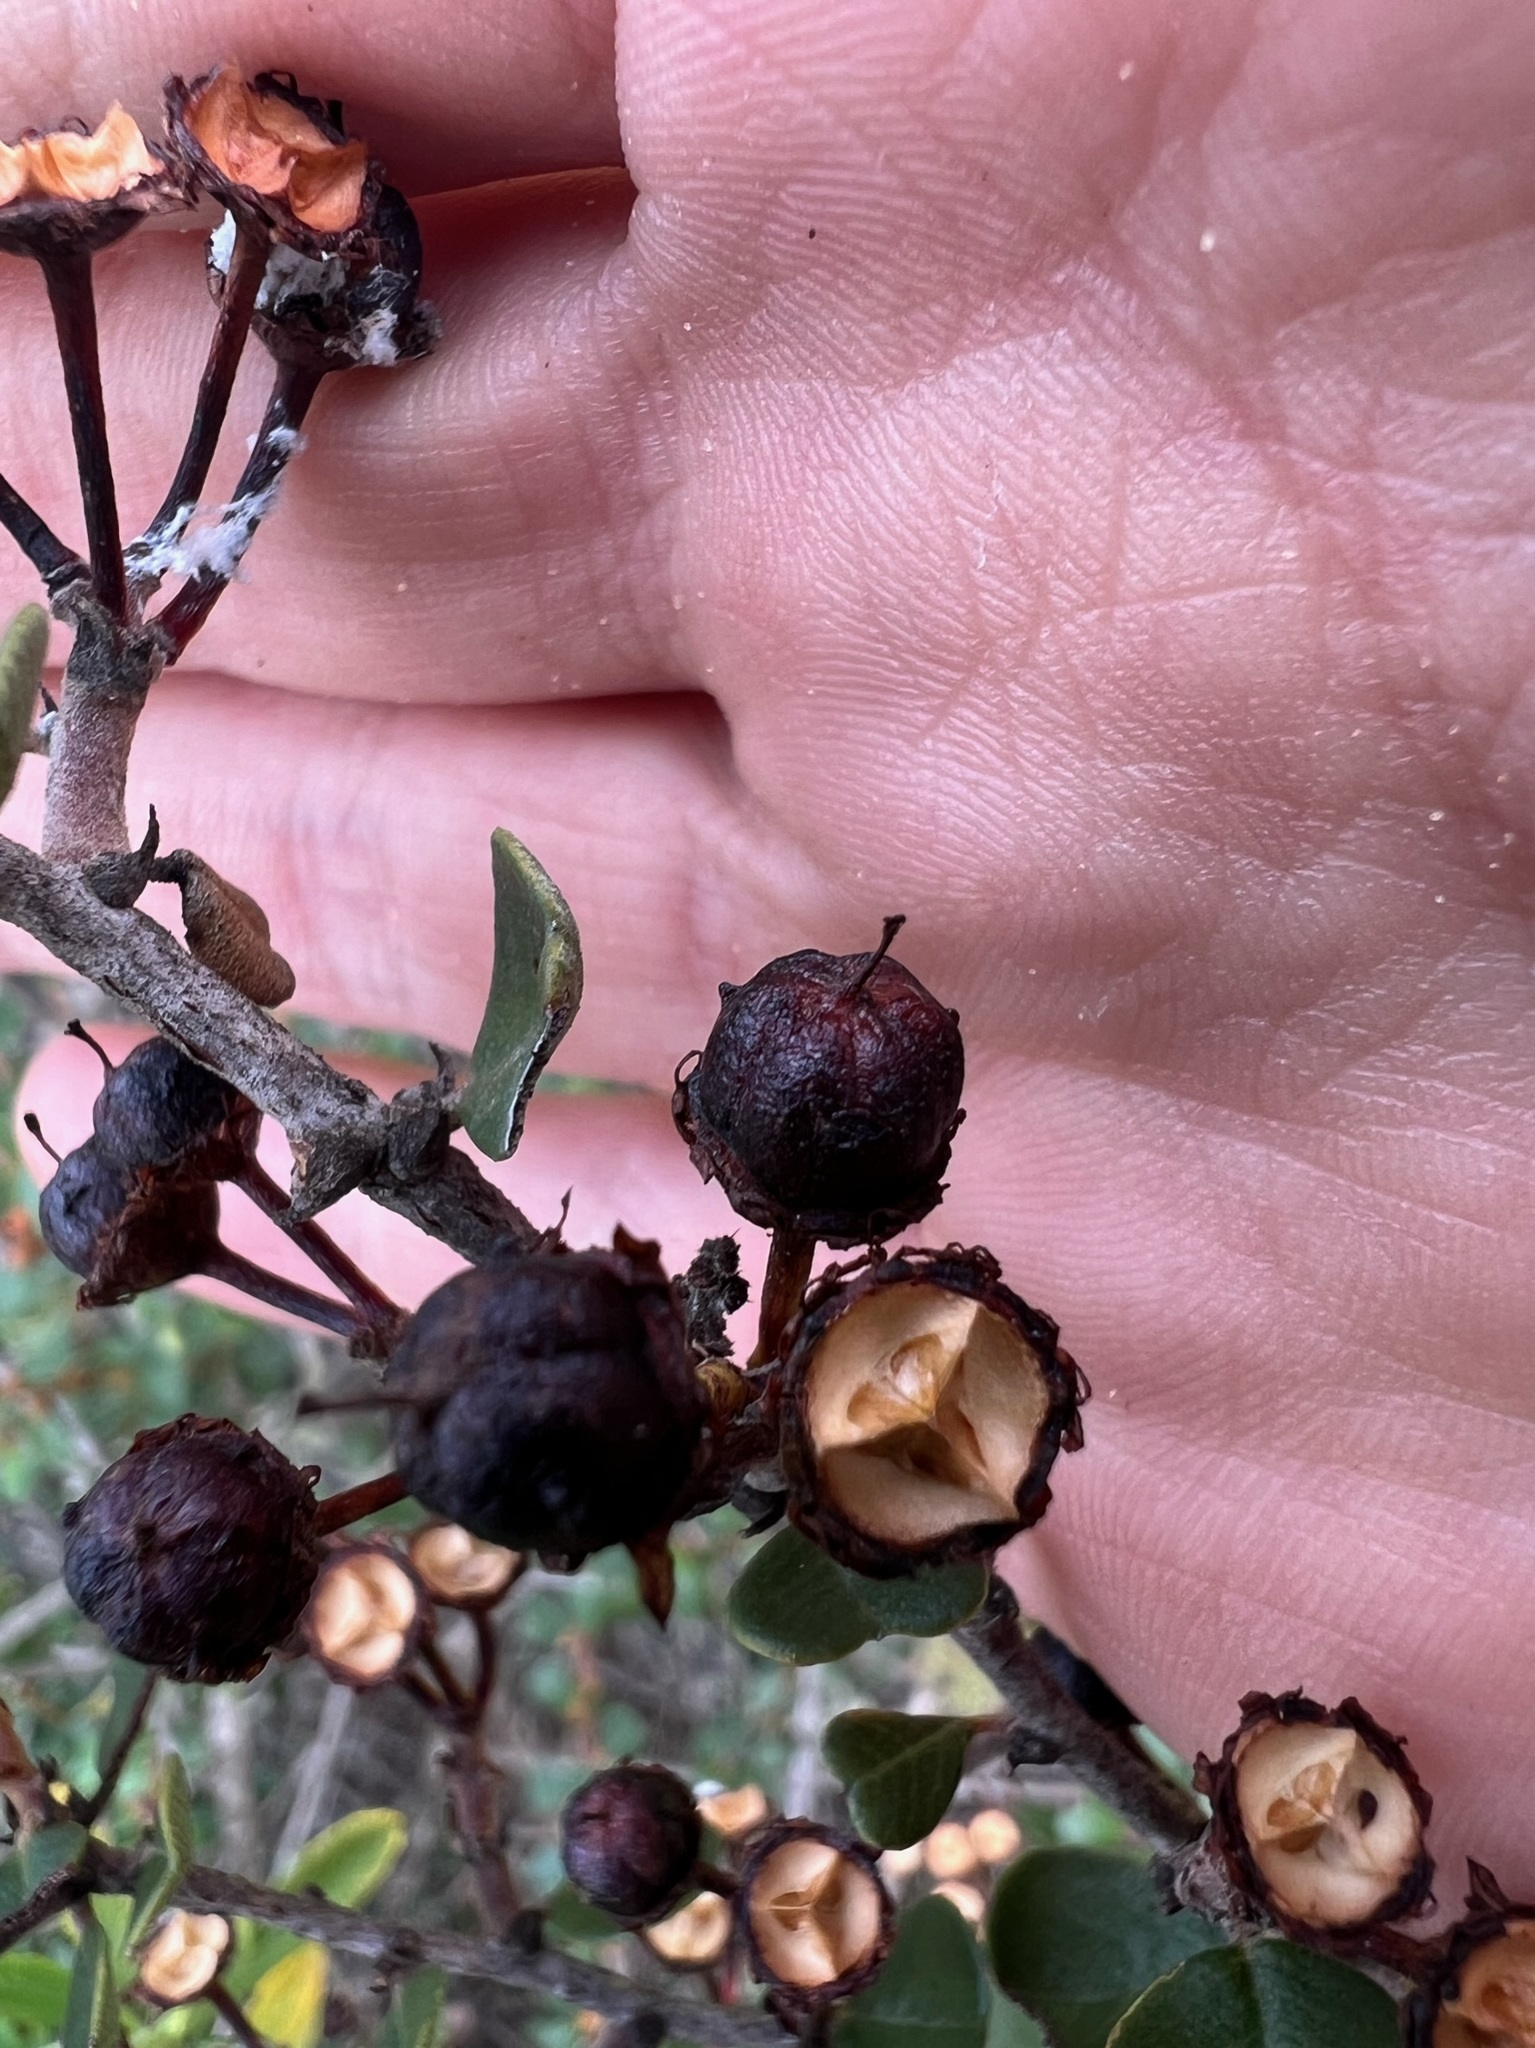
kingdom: Plantae
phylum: Tracheophyta
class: Magnoliopsida
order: Rosales
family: Rhamnaceae
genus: Ceanothus
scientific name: Ceanothus verrucosus
